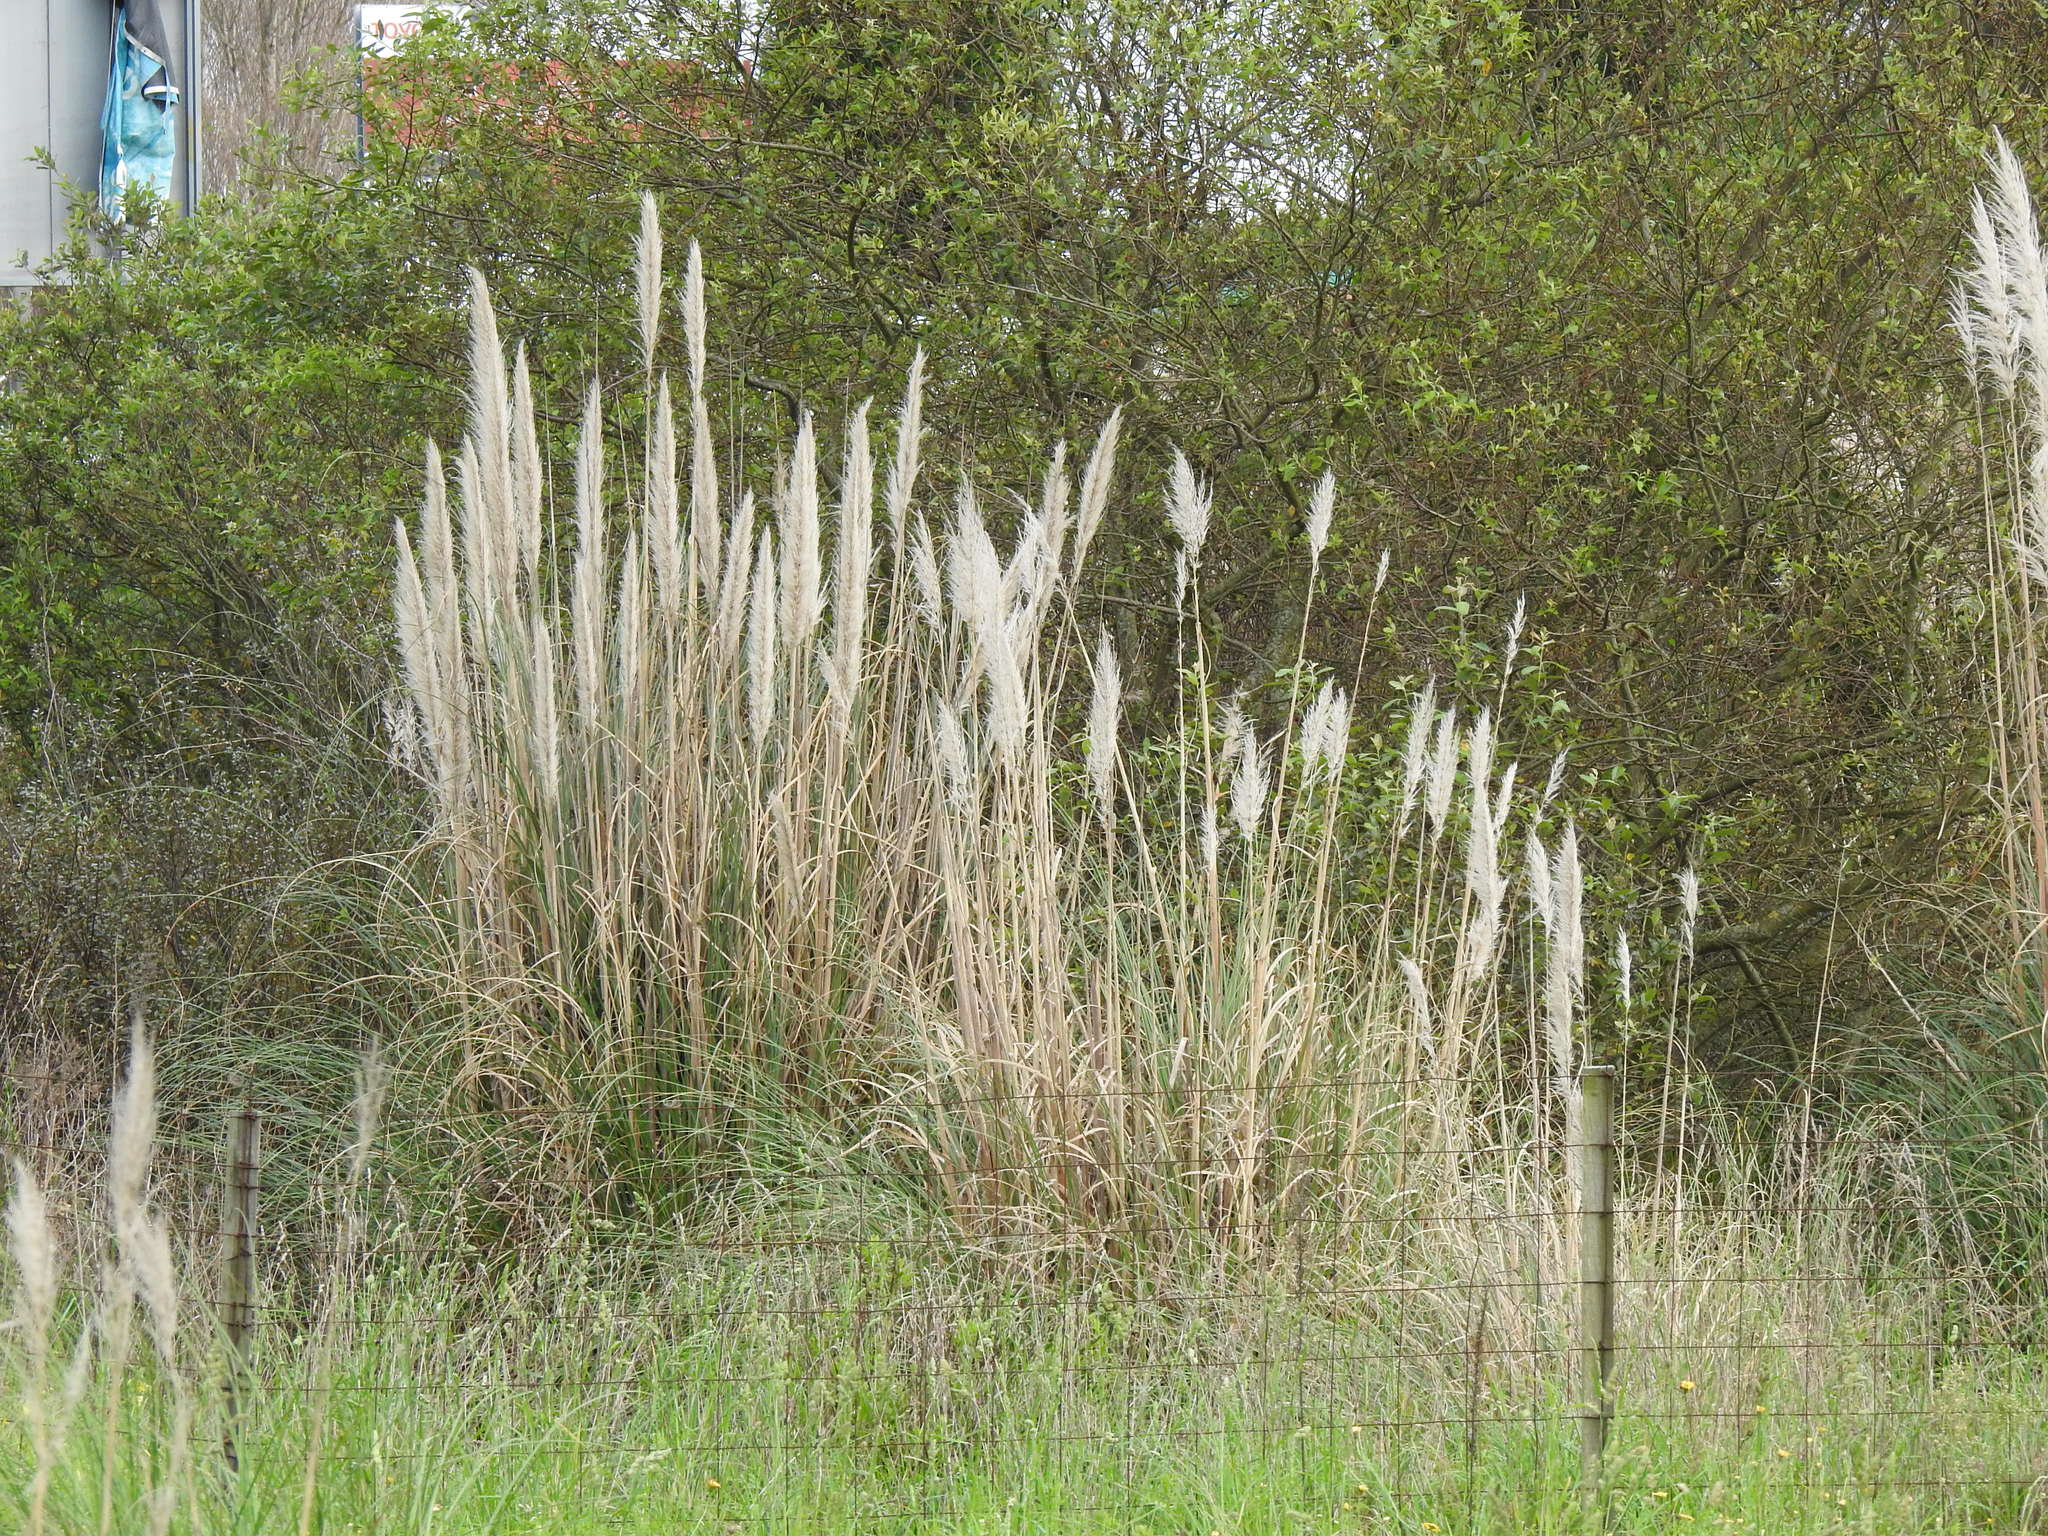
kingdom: Plantae
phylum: Tracheophyta
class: Liliopsida
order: Poales
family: Poaceae
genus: Cortaderia
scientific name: Cortaderia selloana
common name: Uruguayan pampas grass
